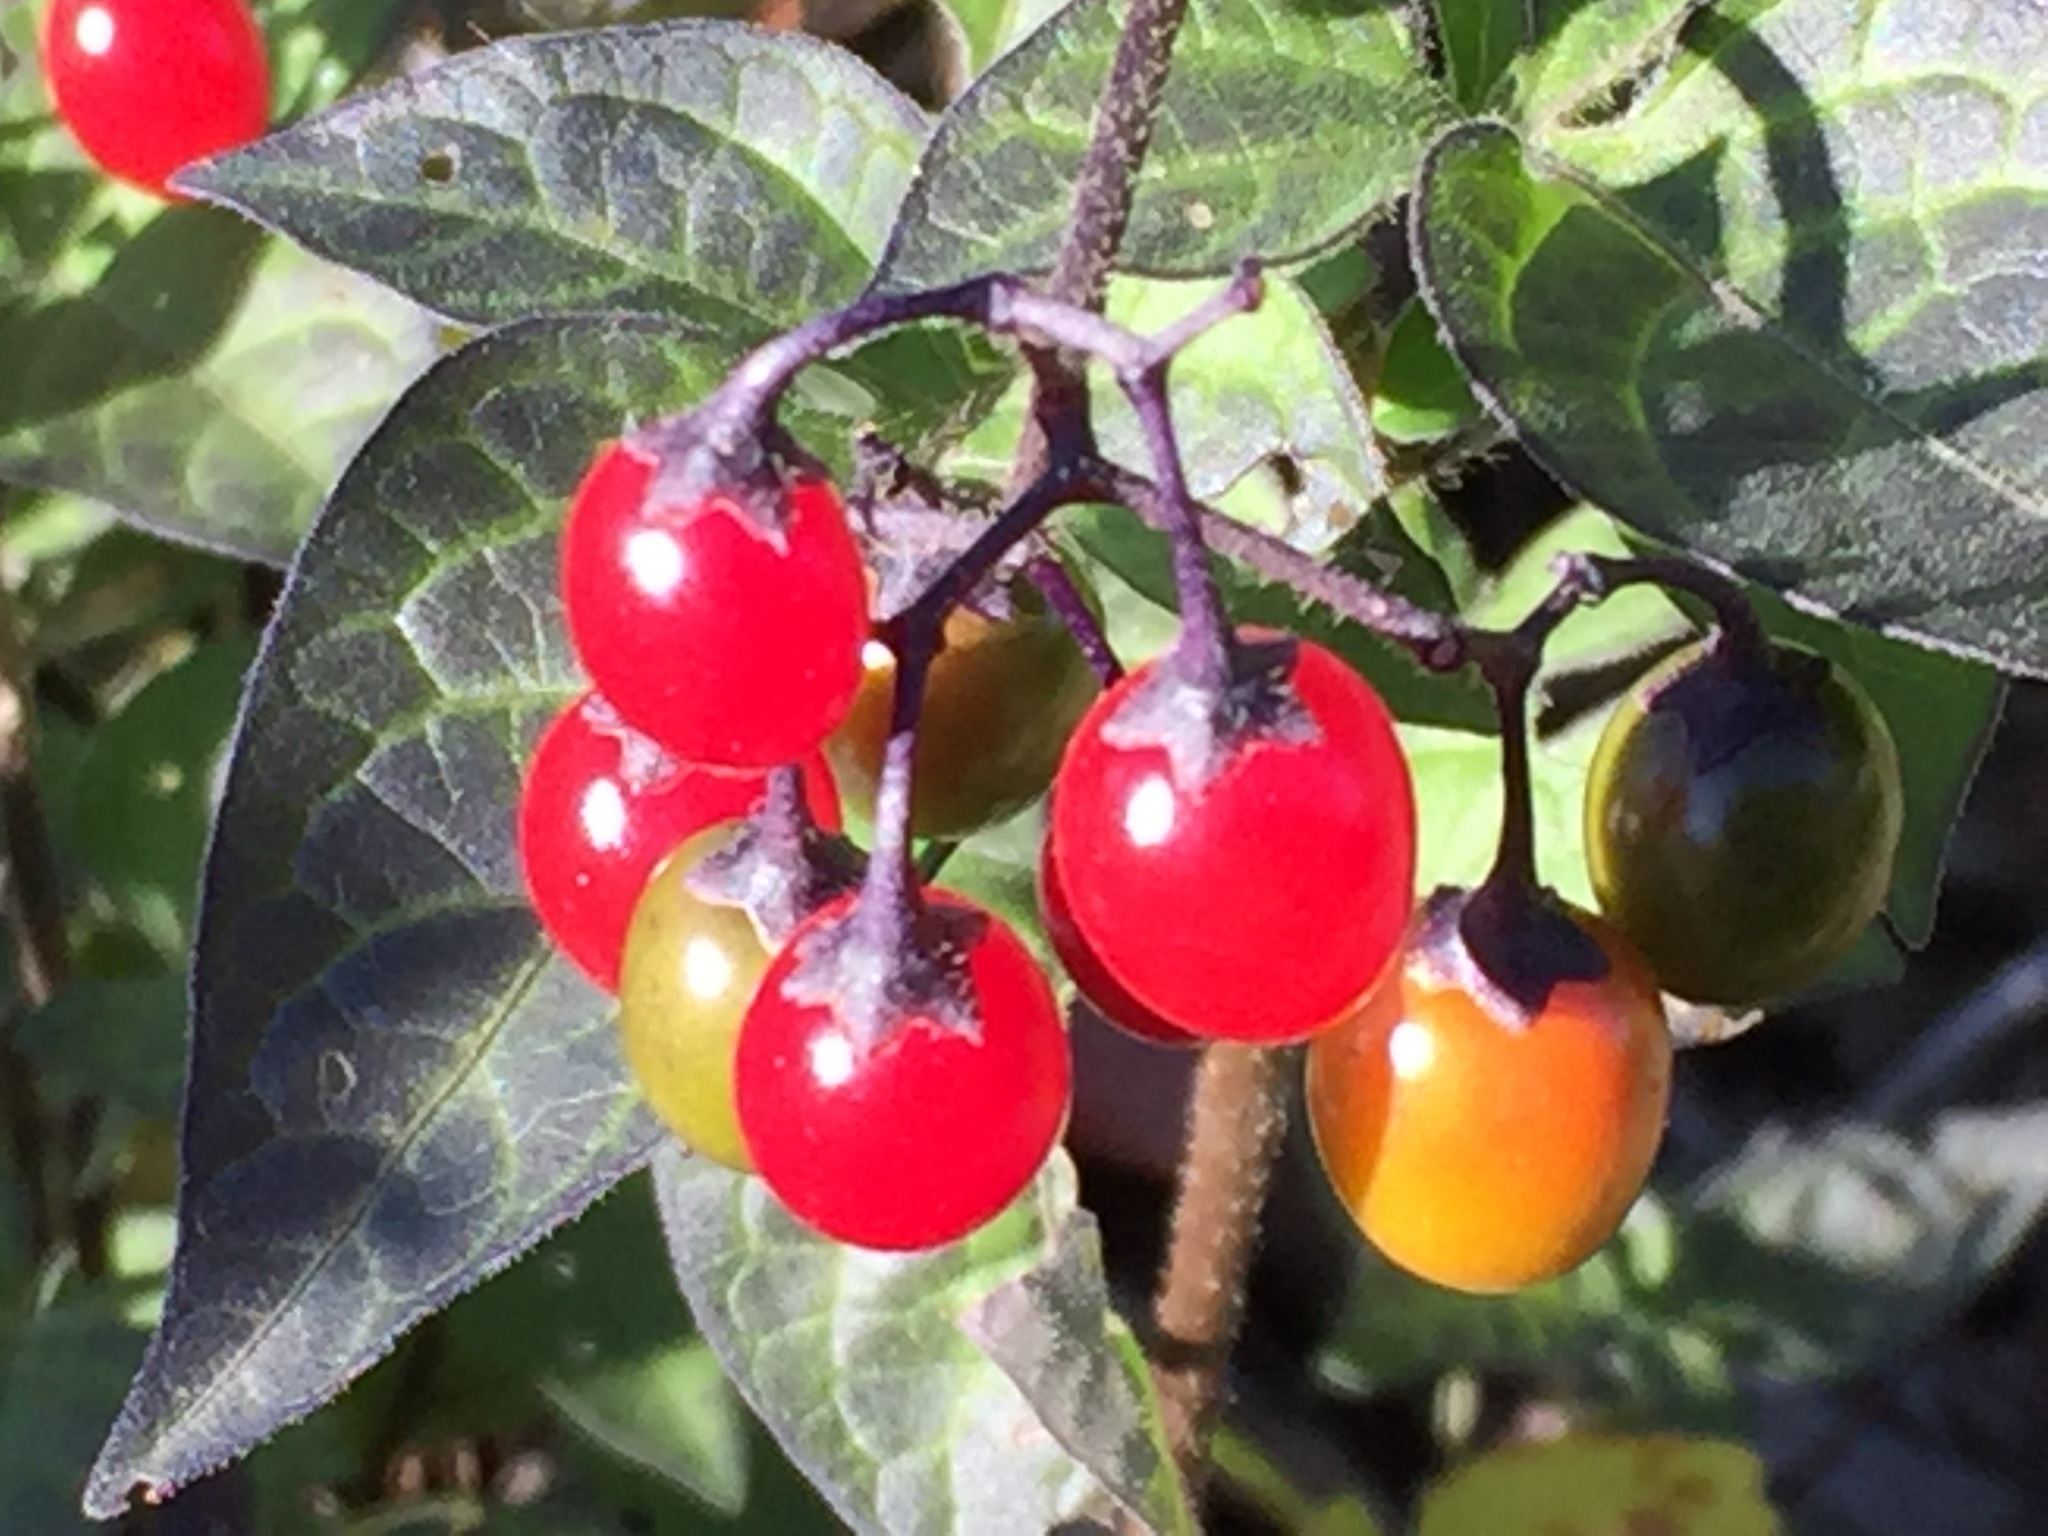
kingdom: Plantae
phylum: Tracheophyta
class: Magnoliopsida
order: Solanales
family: Solanaceae
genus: Solanum
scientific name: Solanum dulcamara
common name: Climbing nightshade
